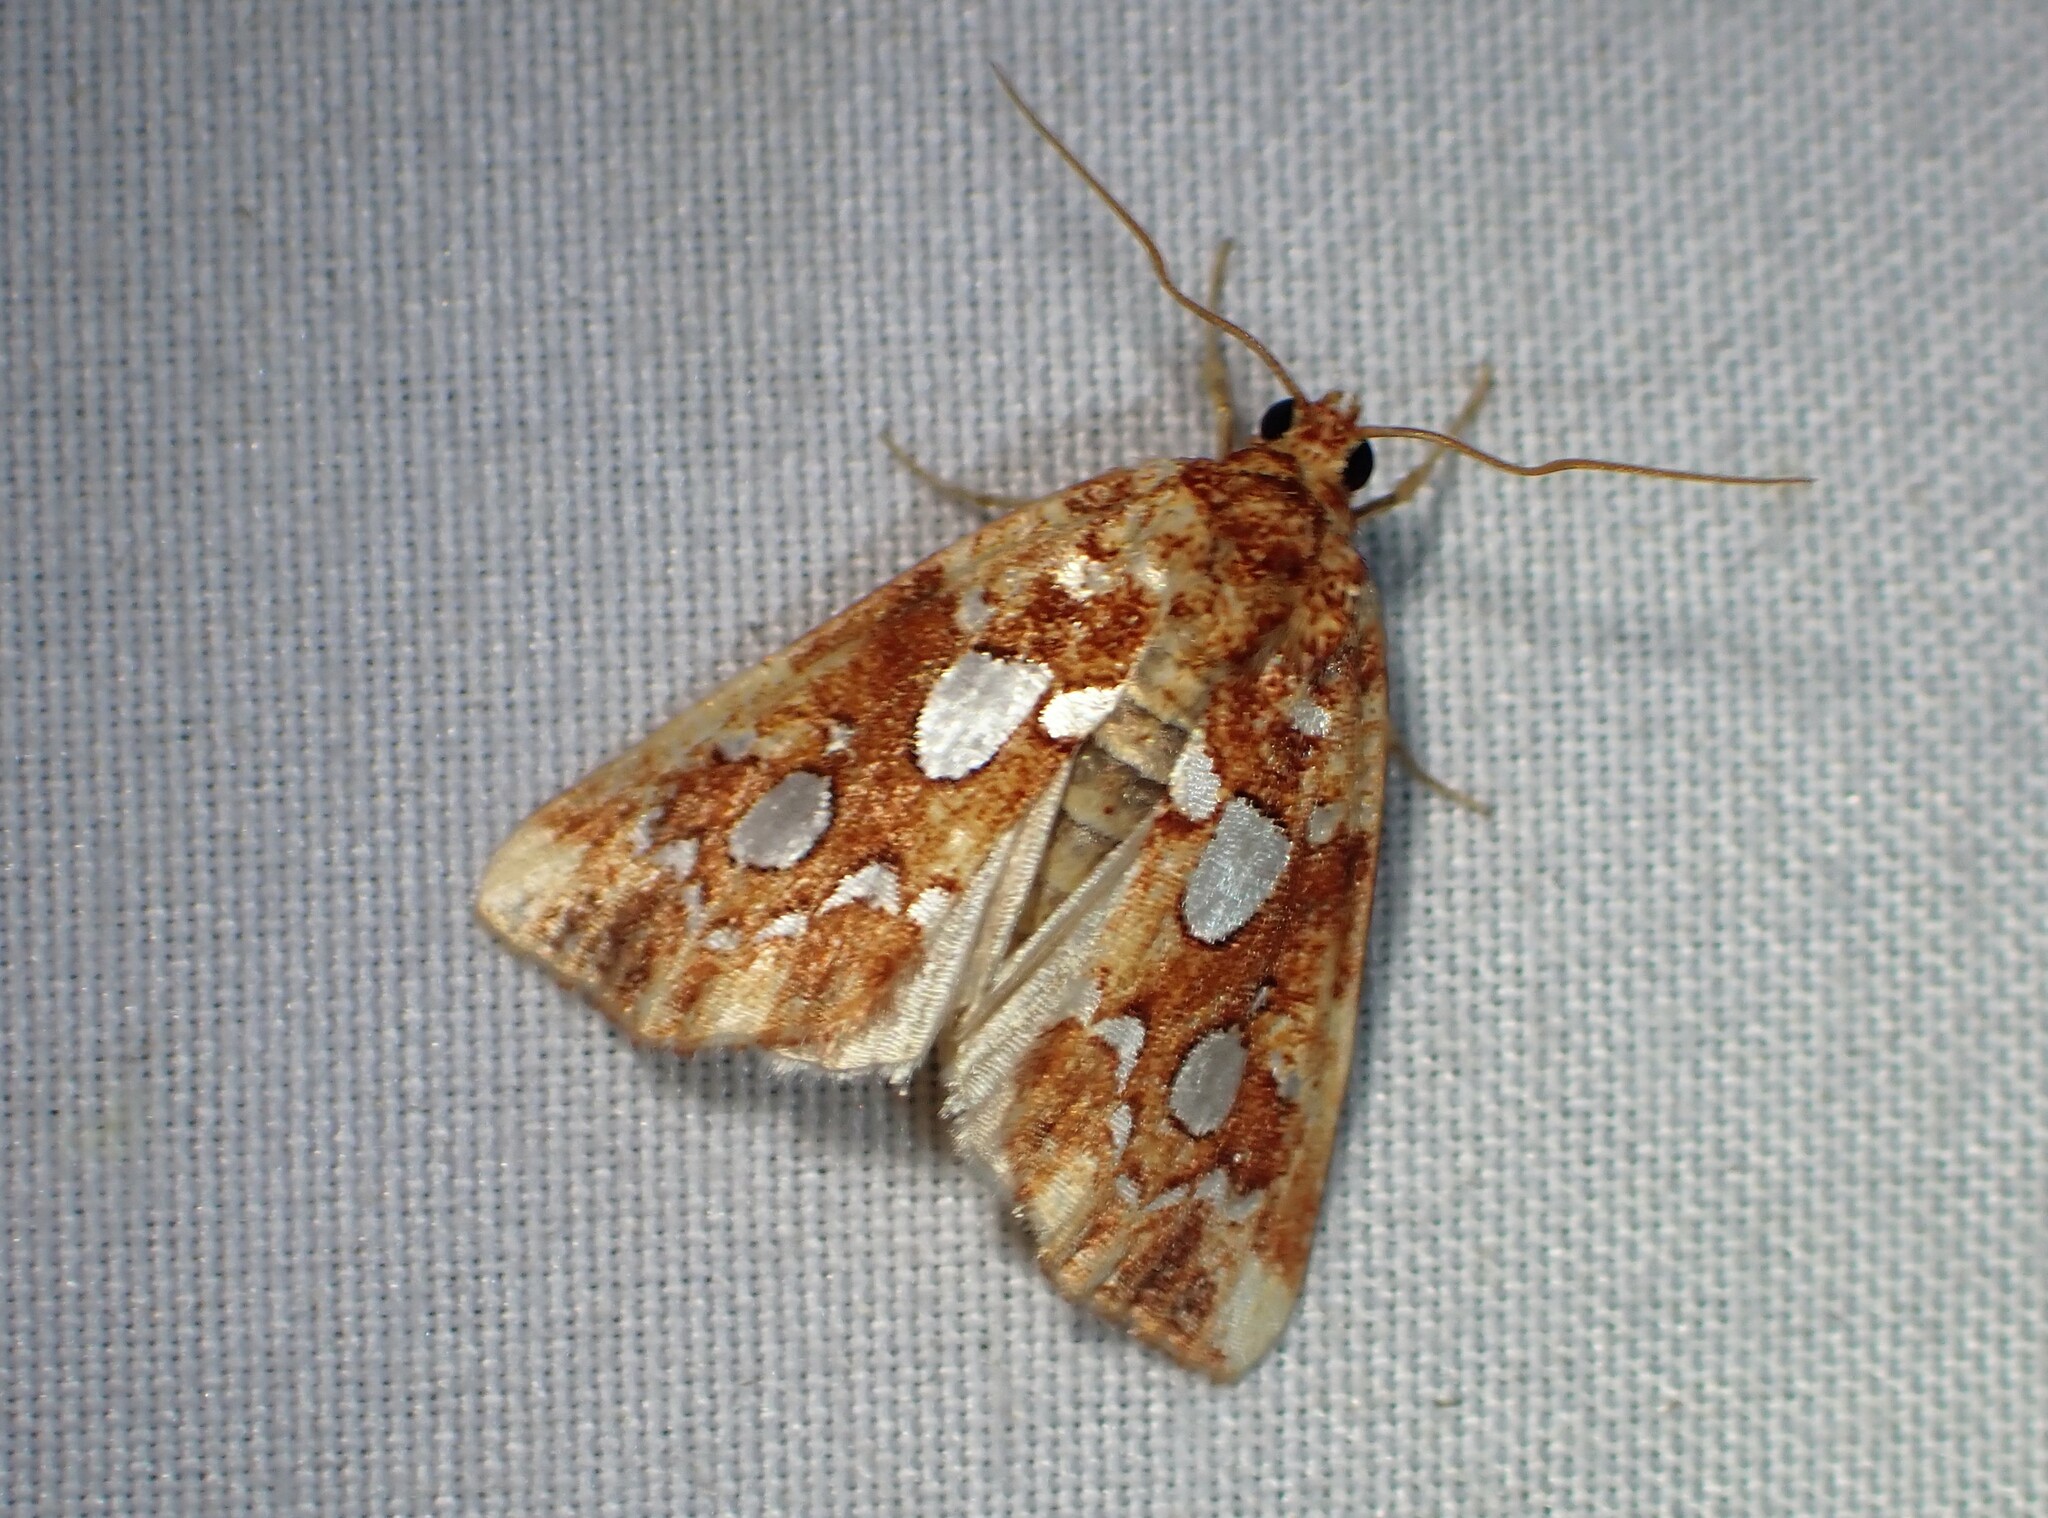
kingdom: Animalia
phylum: Arthropoda
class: Insecta
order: Lepidoptera
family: Noctuidae
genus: Callopistria
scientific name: Callopistria cordata
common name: Silver-spotted fern moth
